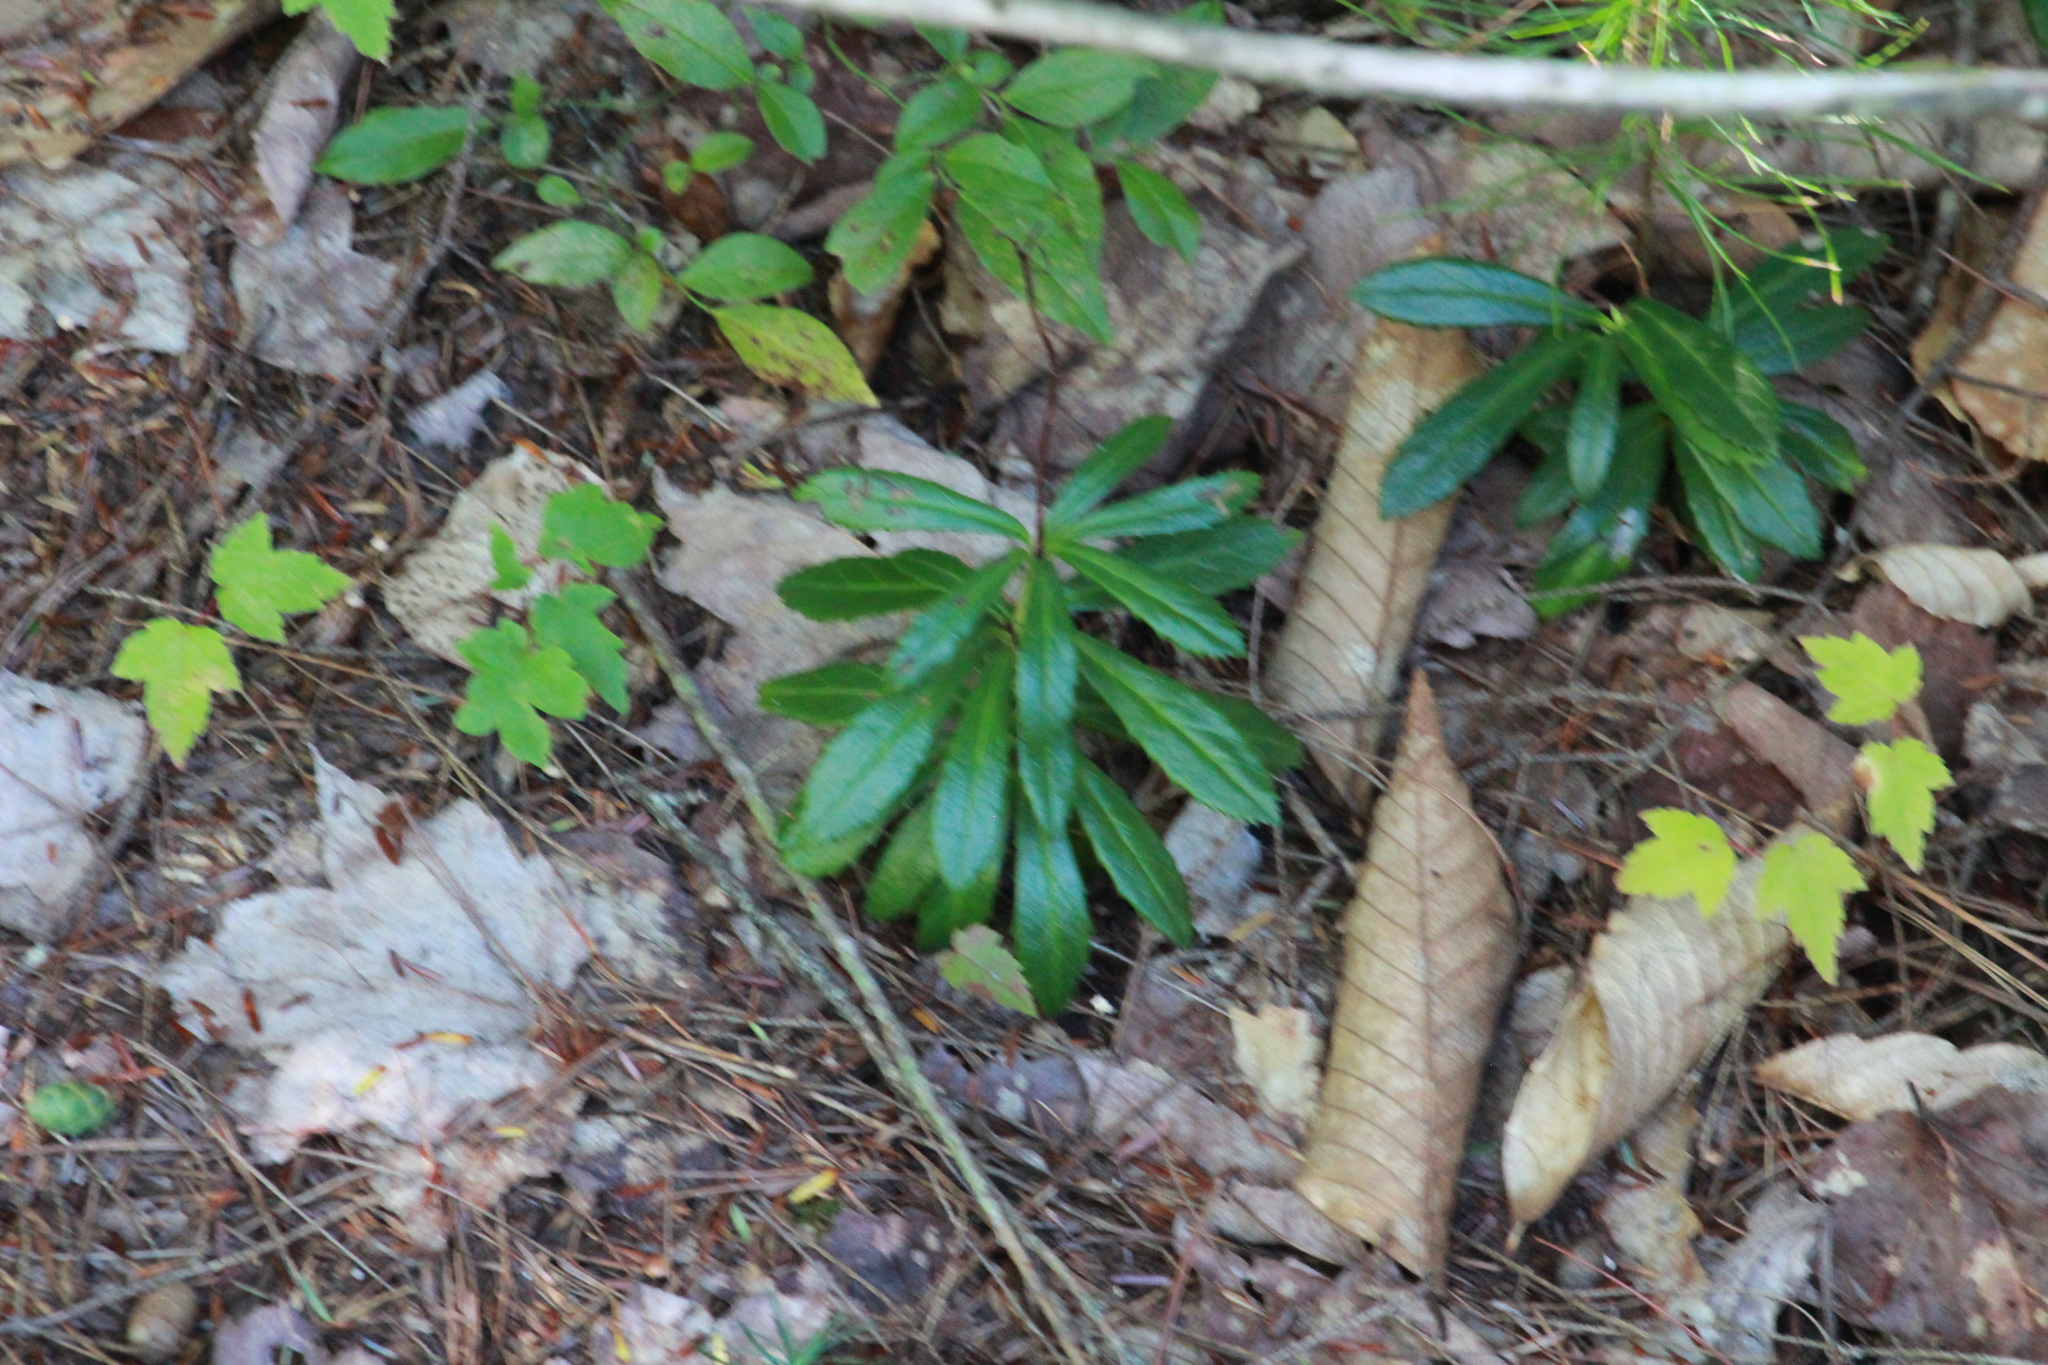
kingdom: Plantae
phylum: Tracheophyta
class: Magnoliopsida
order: Ericales
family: Ericaceae
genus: Chimaphila
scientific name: Chimaphila umbellata
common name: Pipsissewa
